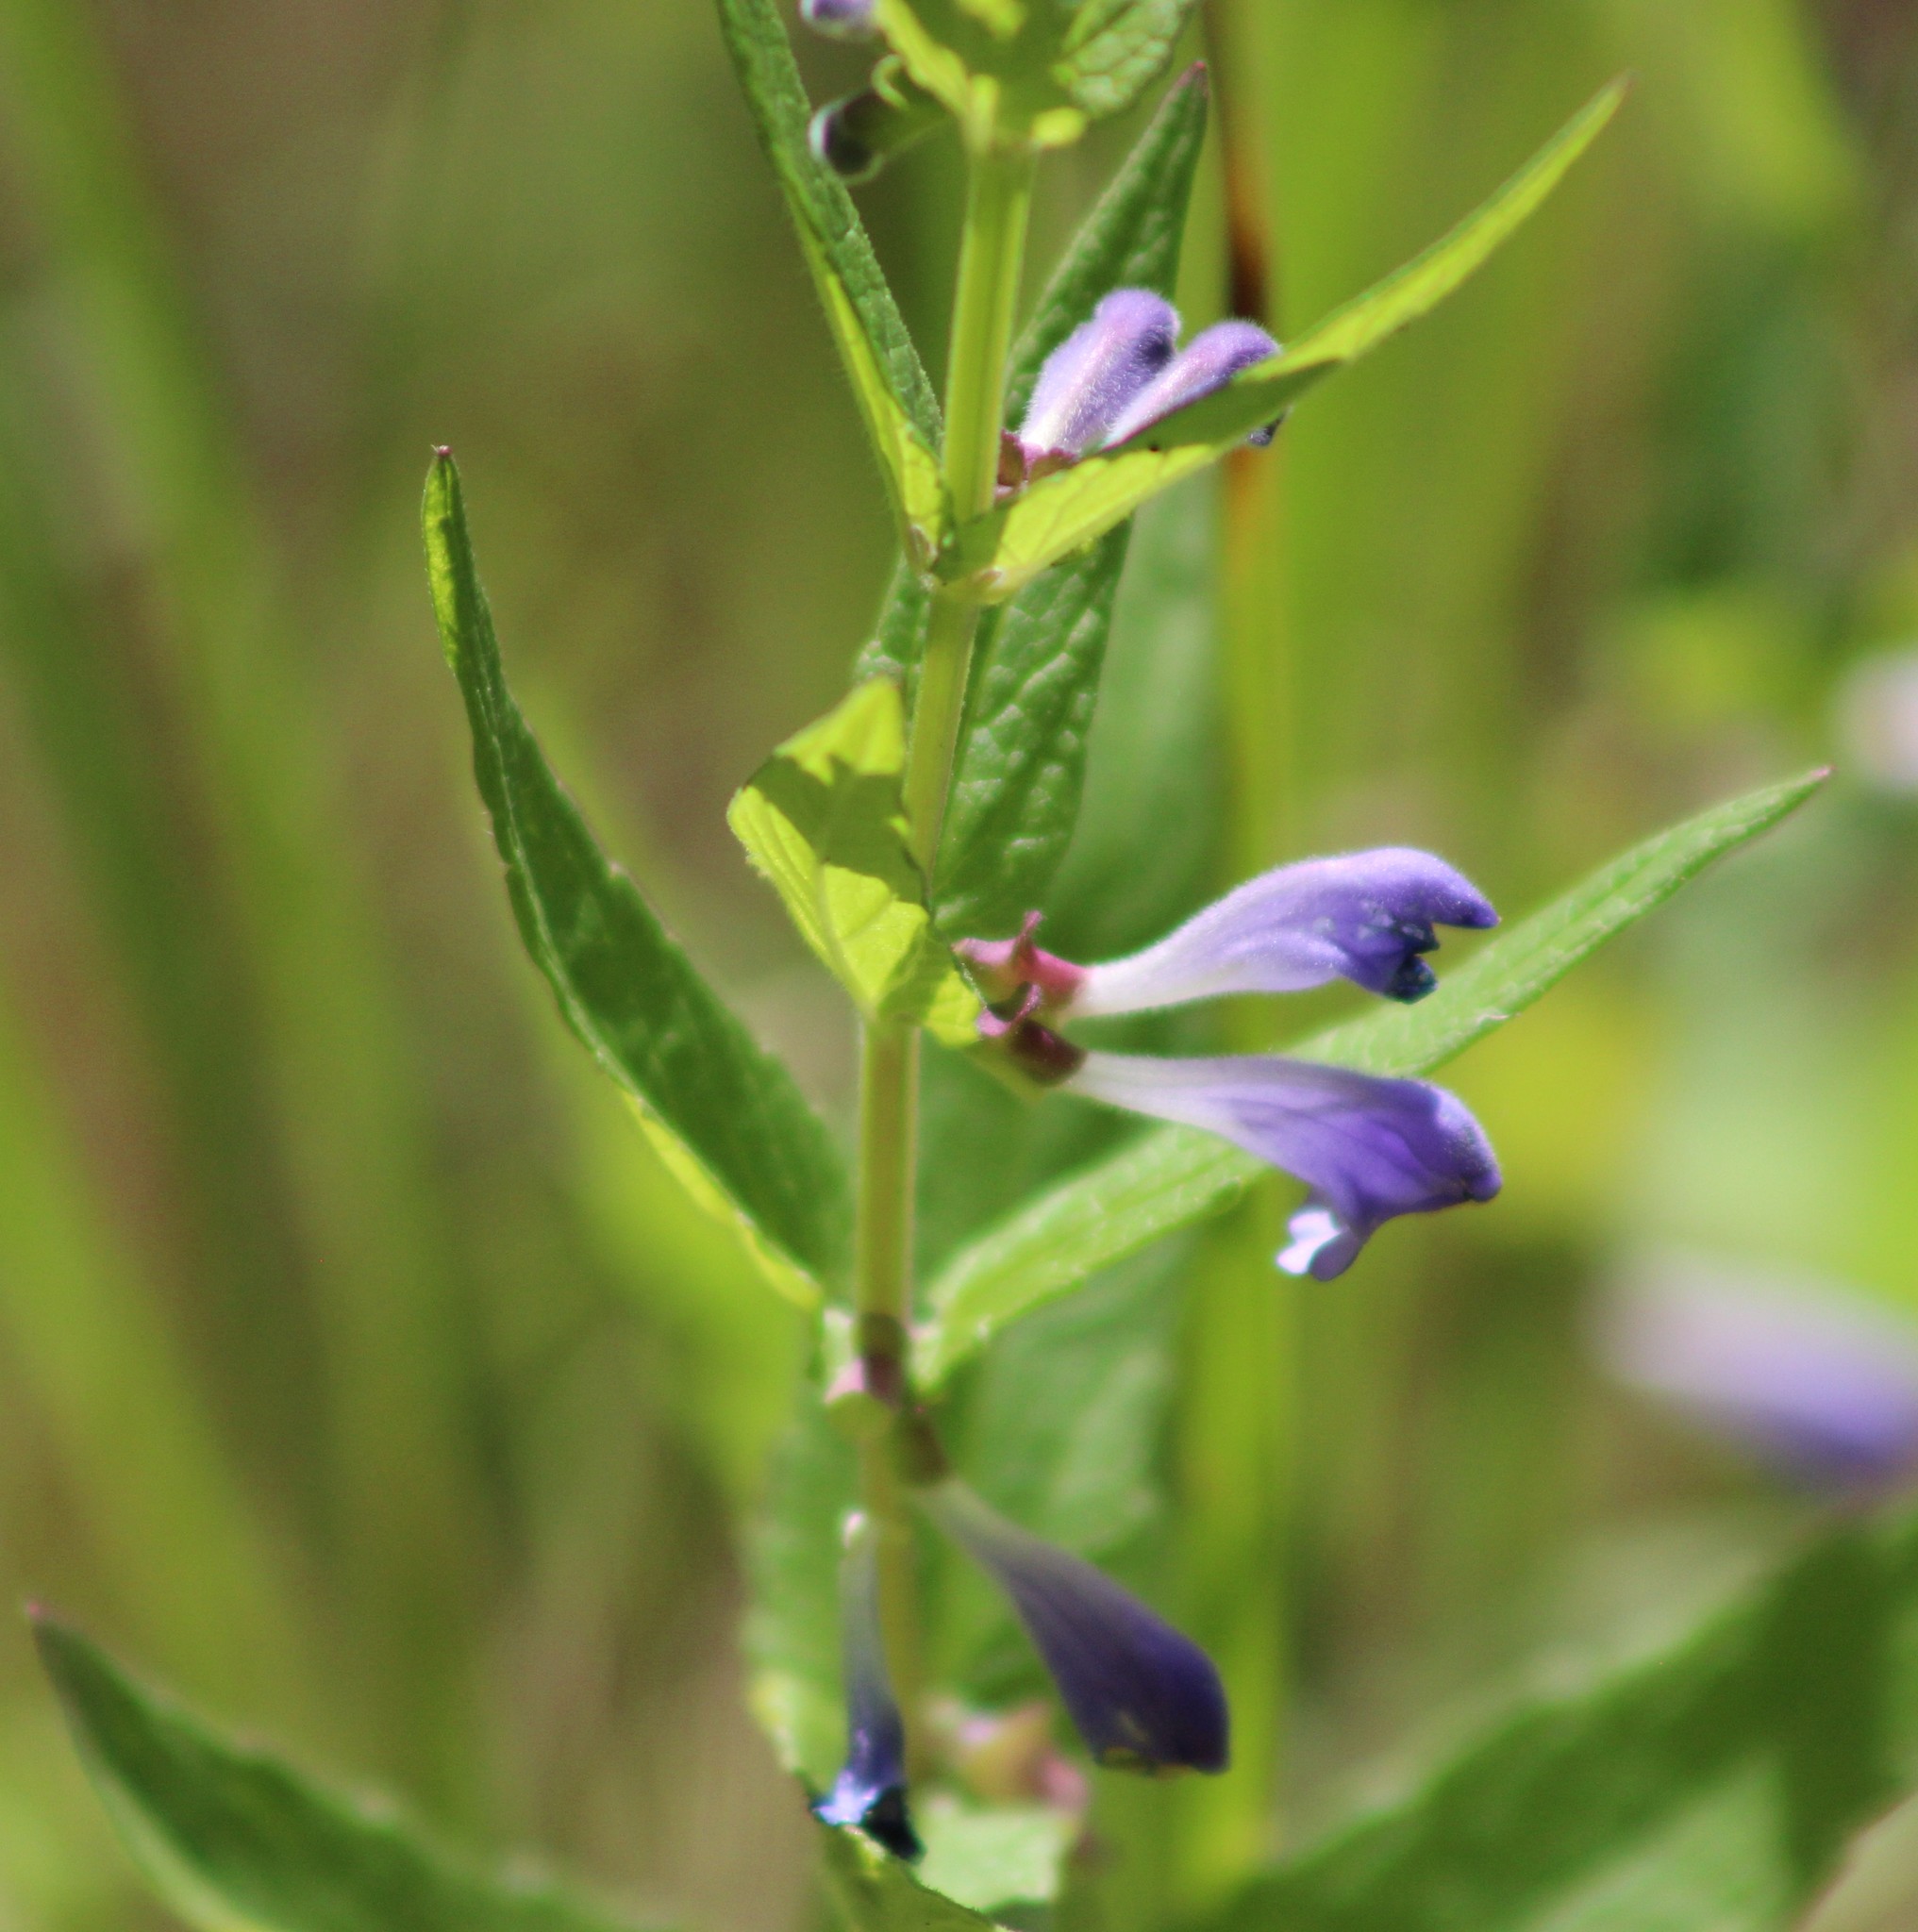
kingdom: Plantae
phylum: Tracheophyta
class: Magnoliopsida
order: Lamiales
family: Lamiaceae
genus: Scutellaria
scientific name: Scutellaria galericulata
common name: Skullcap
